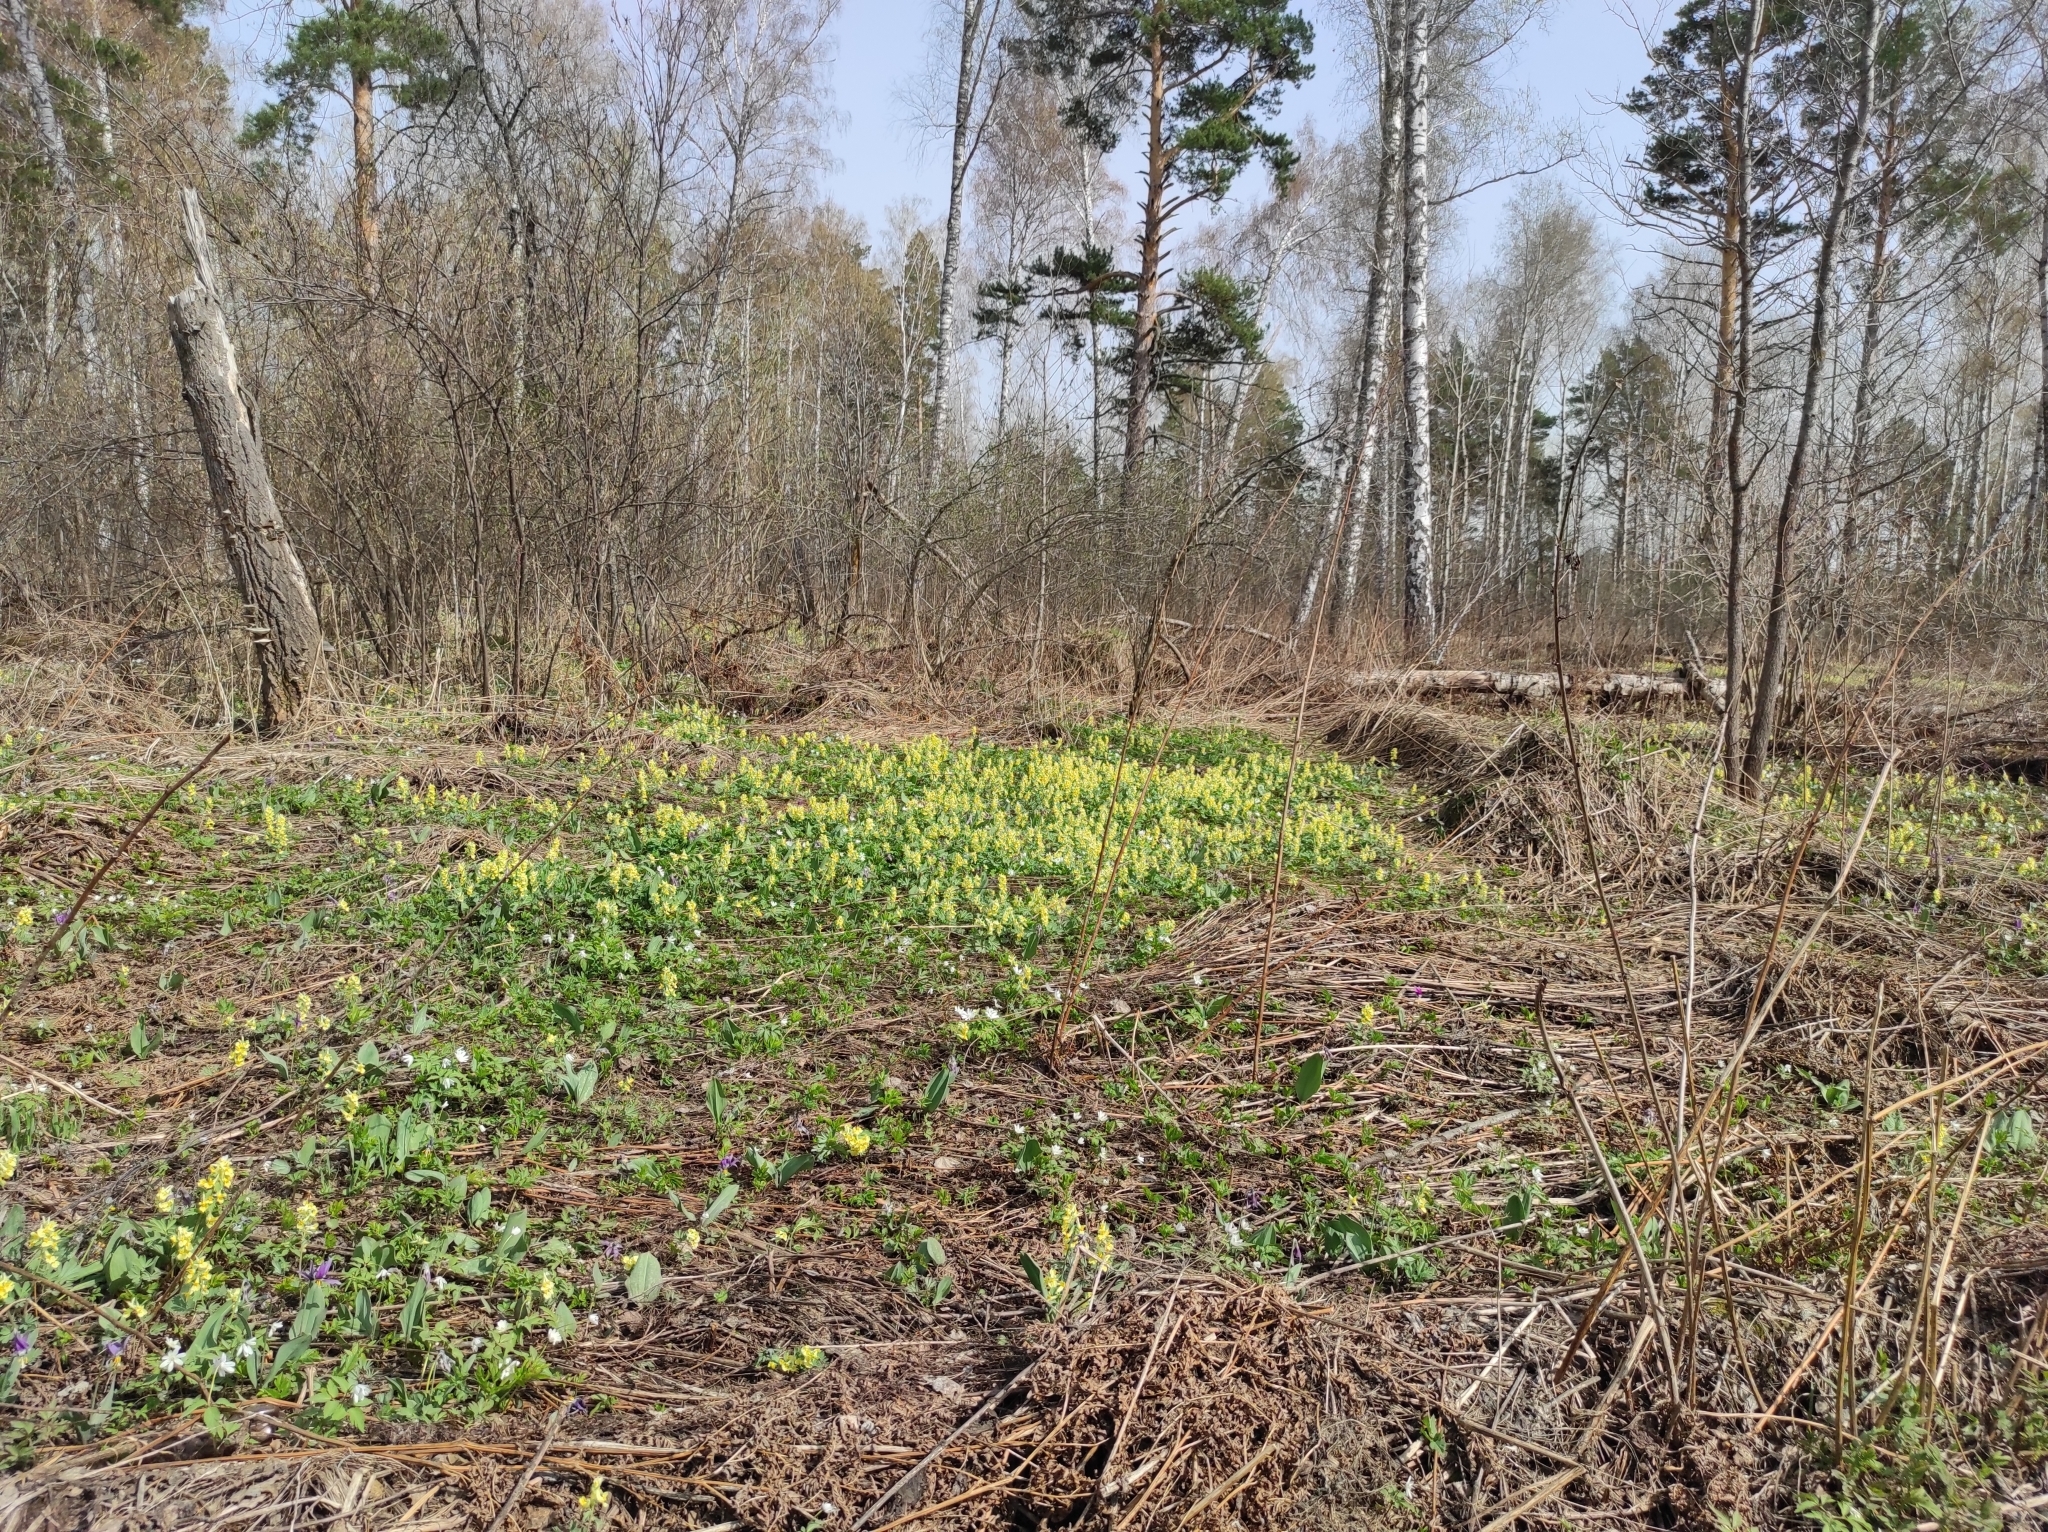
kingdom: Plantae
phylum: Tracheophyta
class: Magnoliopsida
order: Ranunculales
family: Papaveraceae
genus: Corydalis
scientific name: Corydalis bracteata
